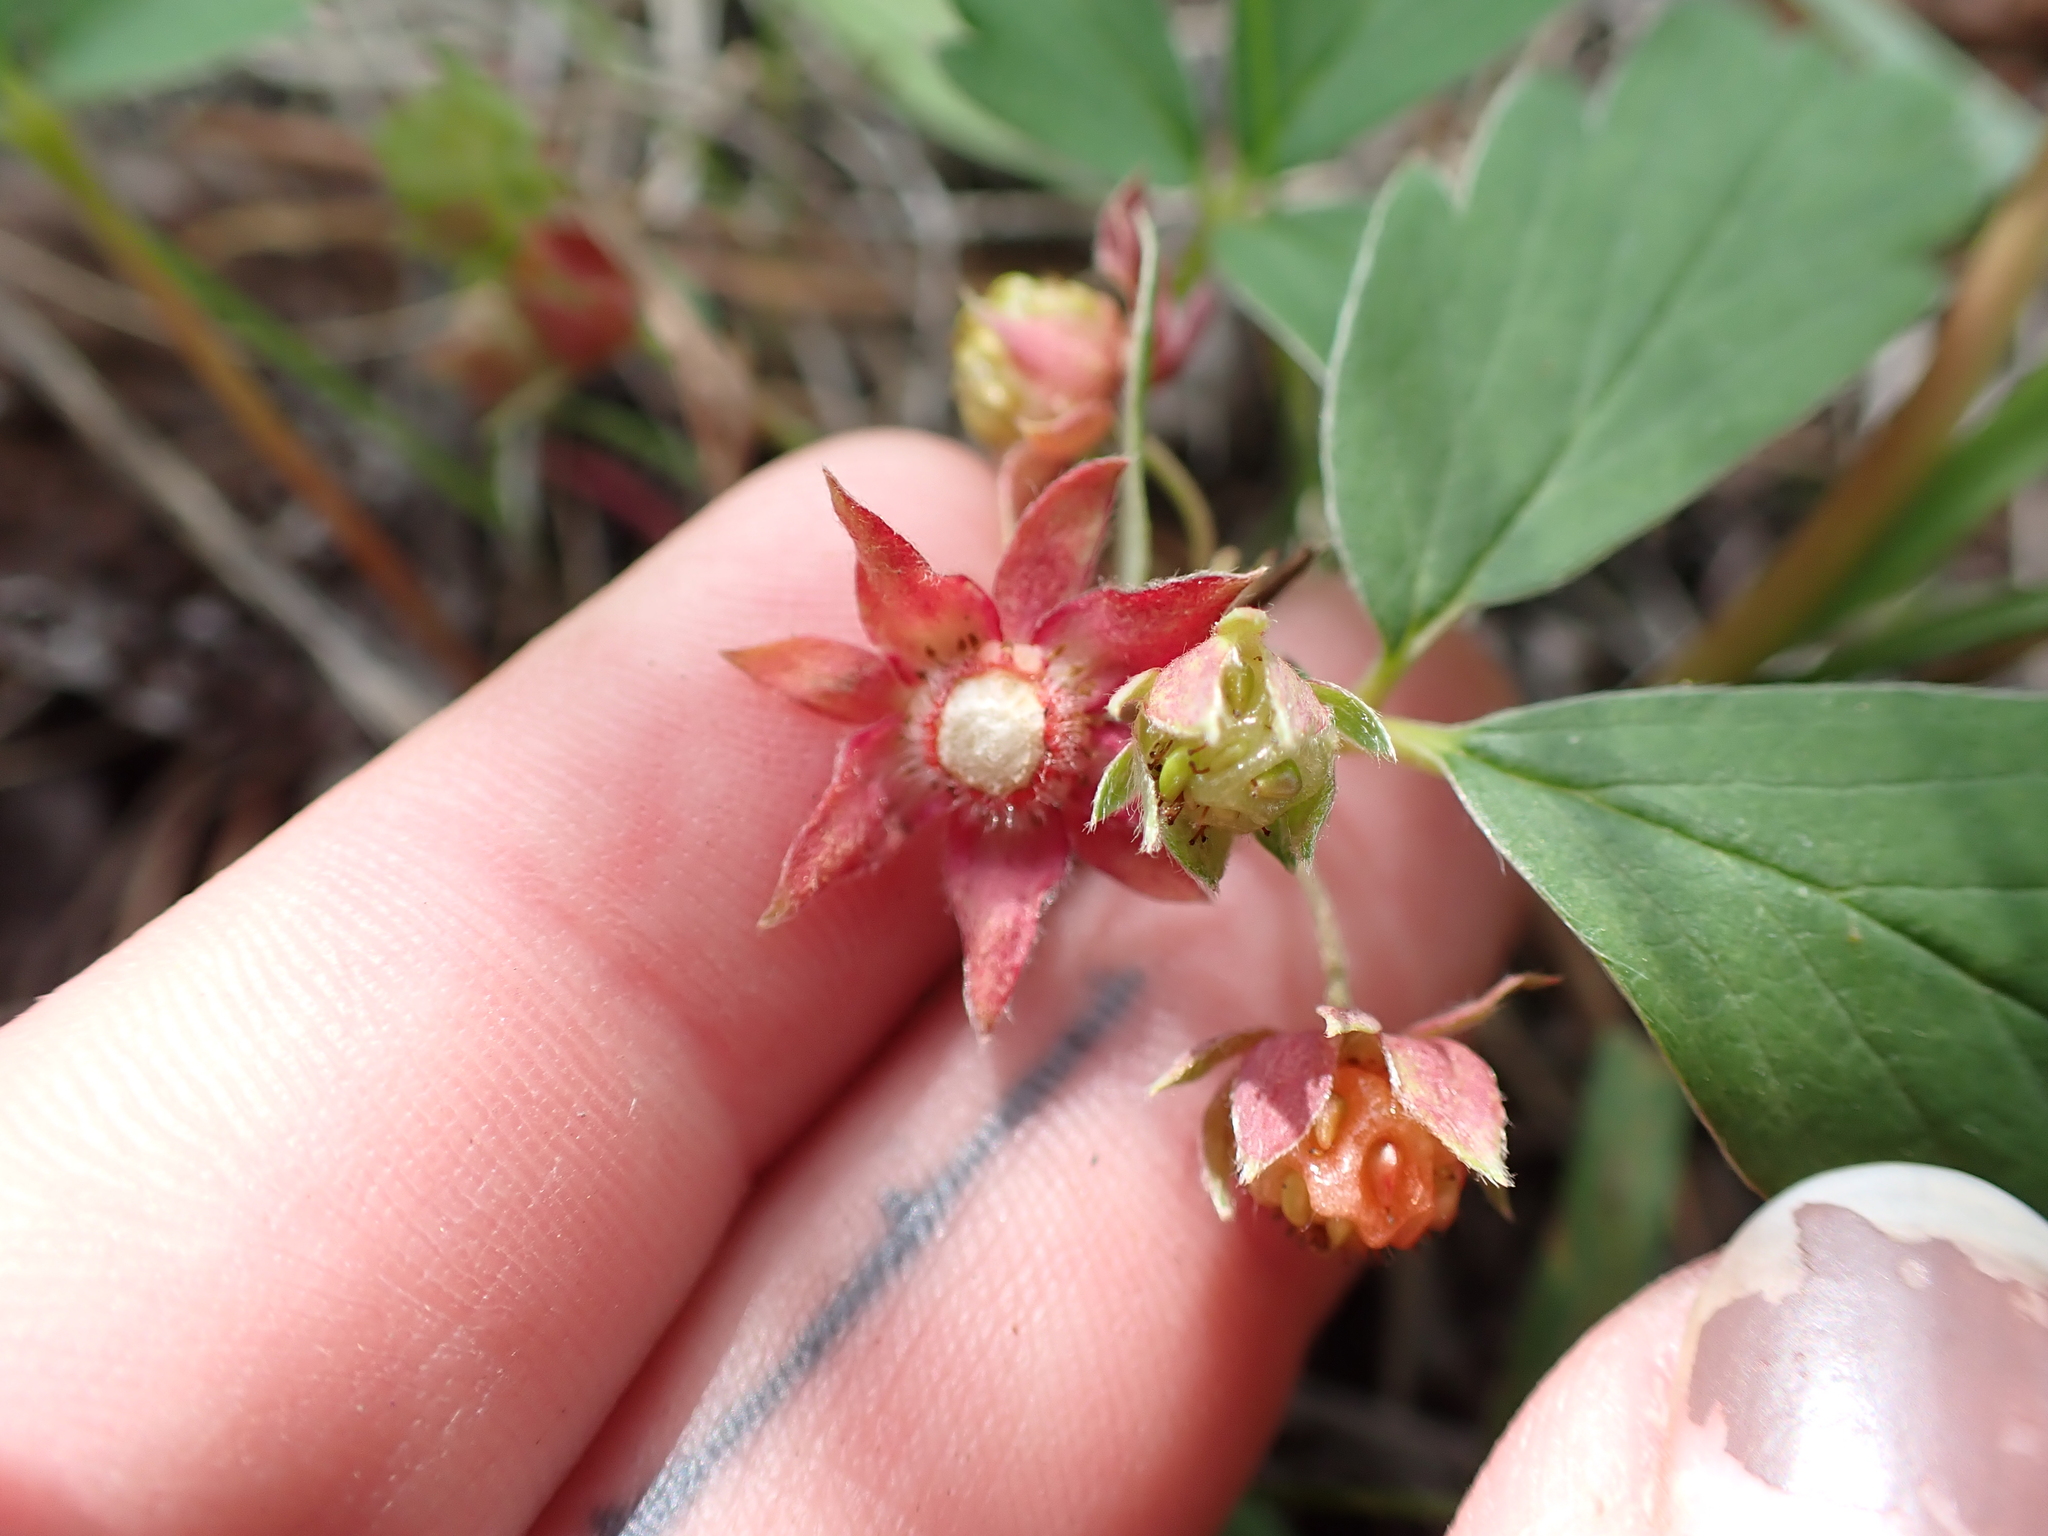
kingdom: Plantae
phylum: Tracheophyta
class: Magnoliopsida
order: Rosales
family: Rosaceae
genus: Fragaria
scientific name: Fragaria virginiana
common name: Thickleaved wild strawberry
